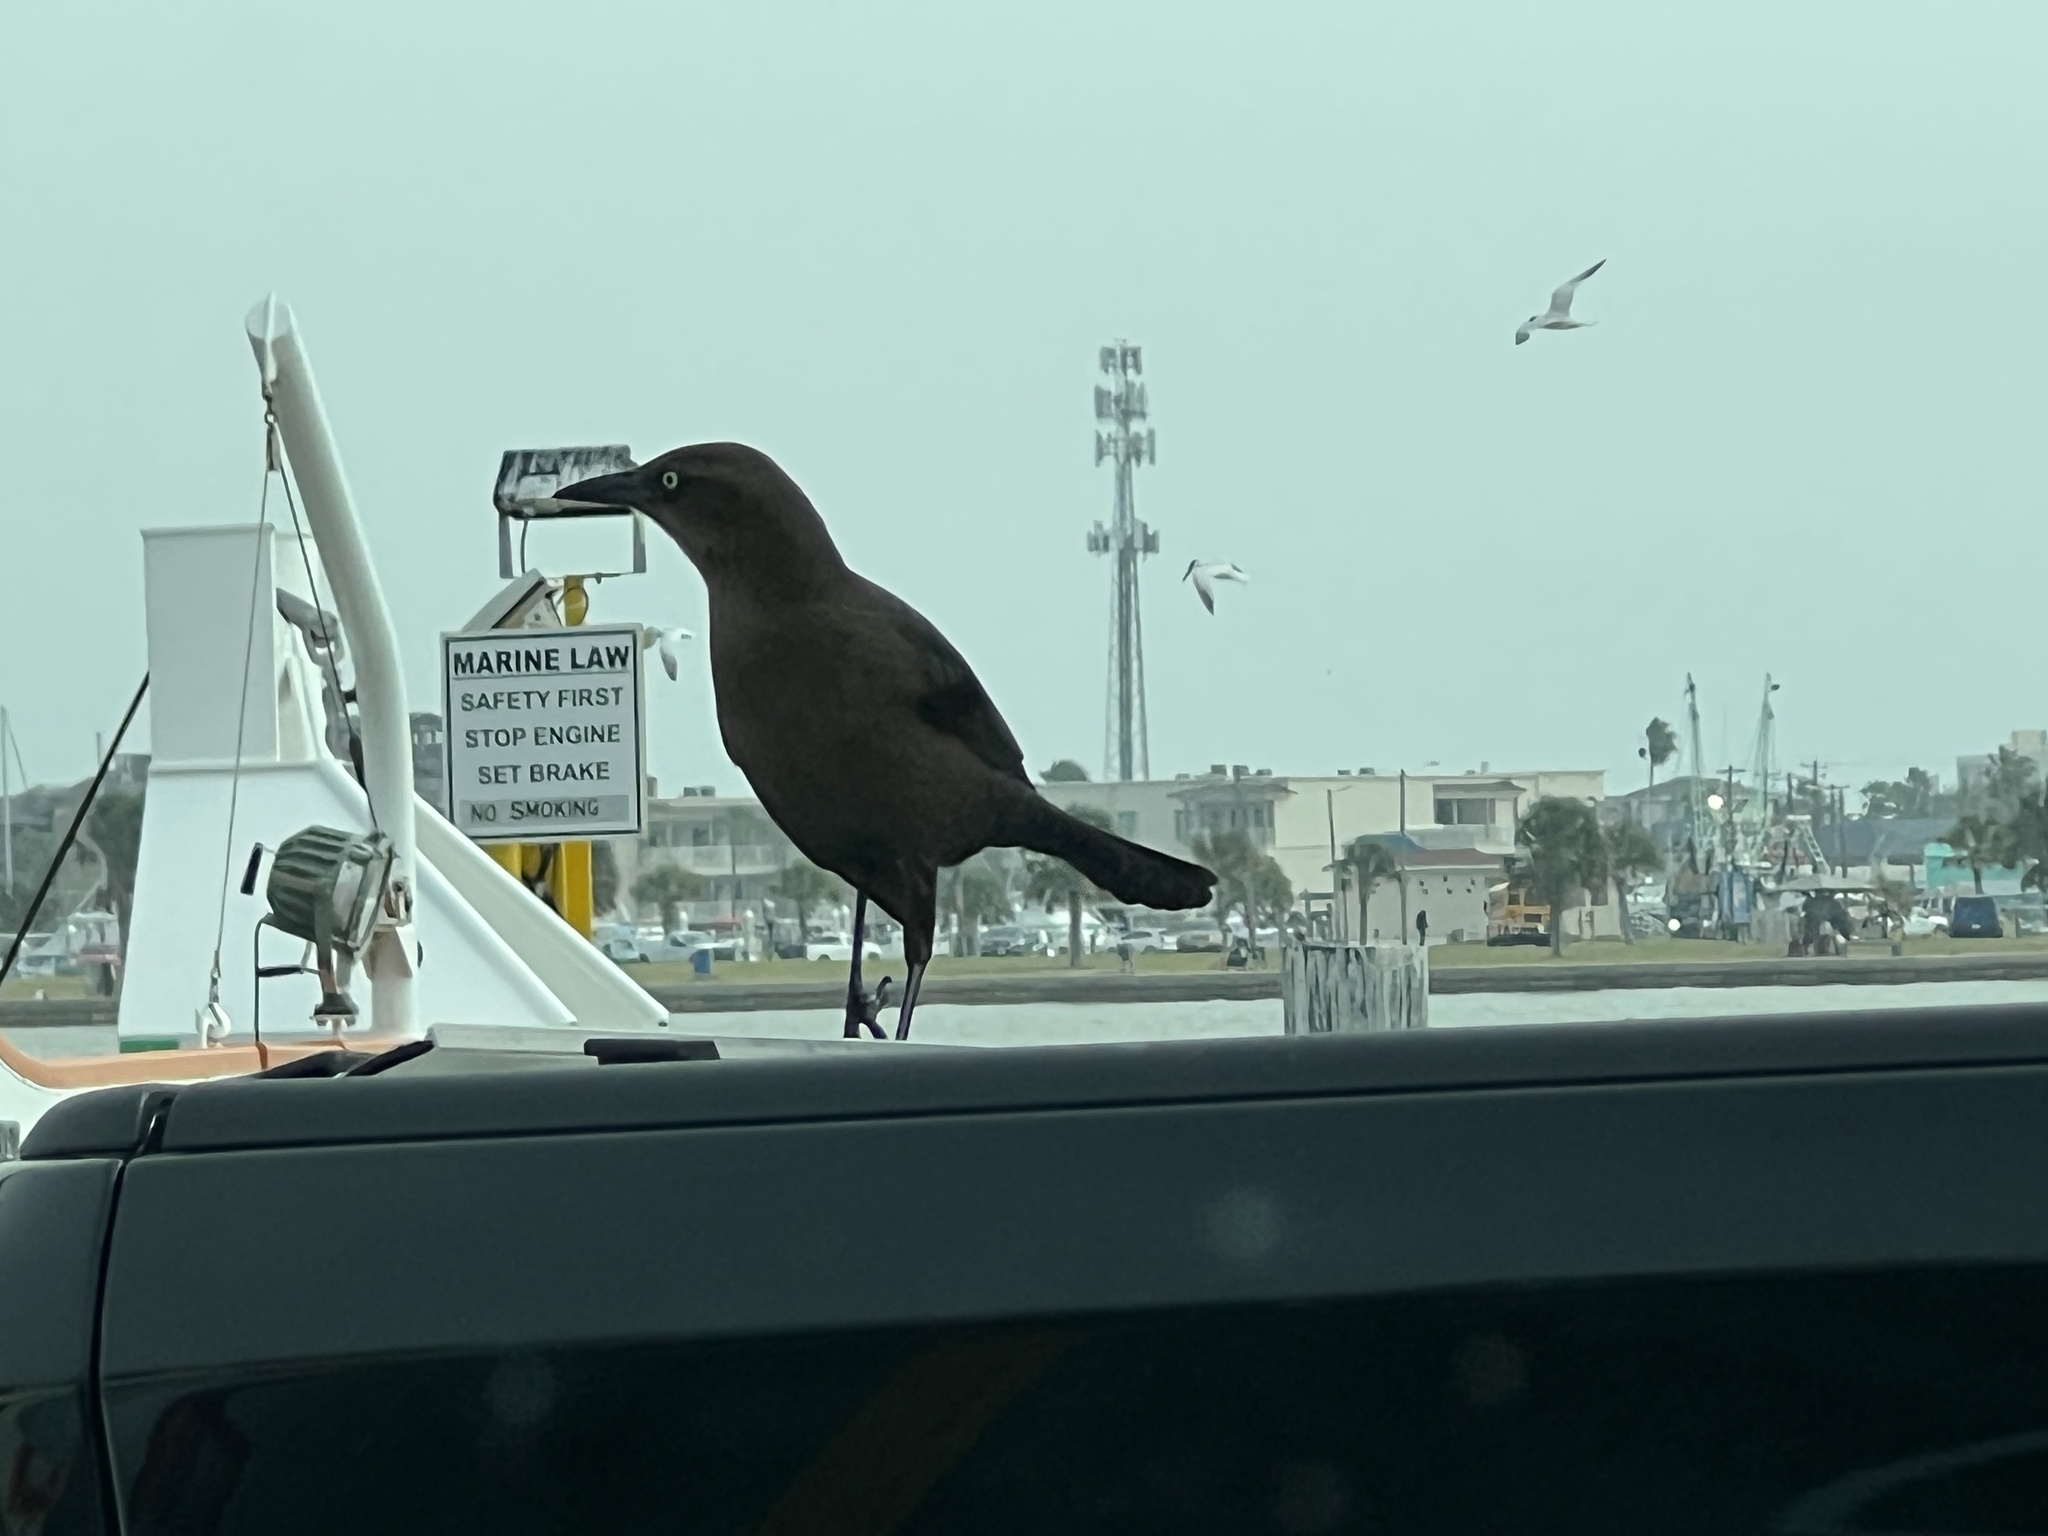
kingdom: Animalia
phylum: Chordata
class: Aves
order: Passeriformes
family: Icteridae
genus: Quiscalus
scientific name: Quiscalus mexicanus
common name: Great-tailed grackle
